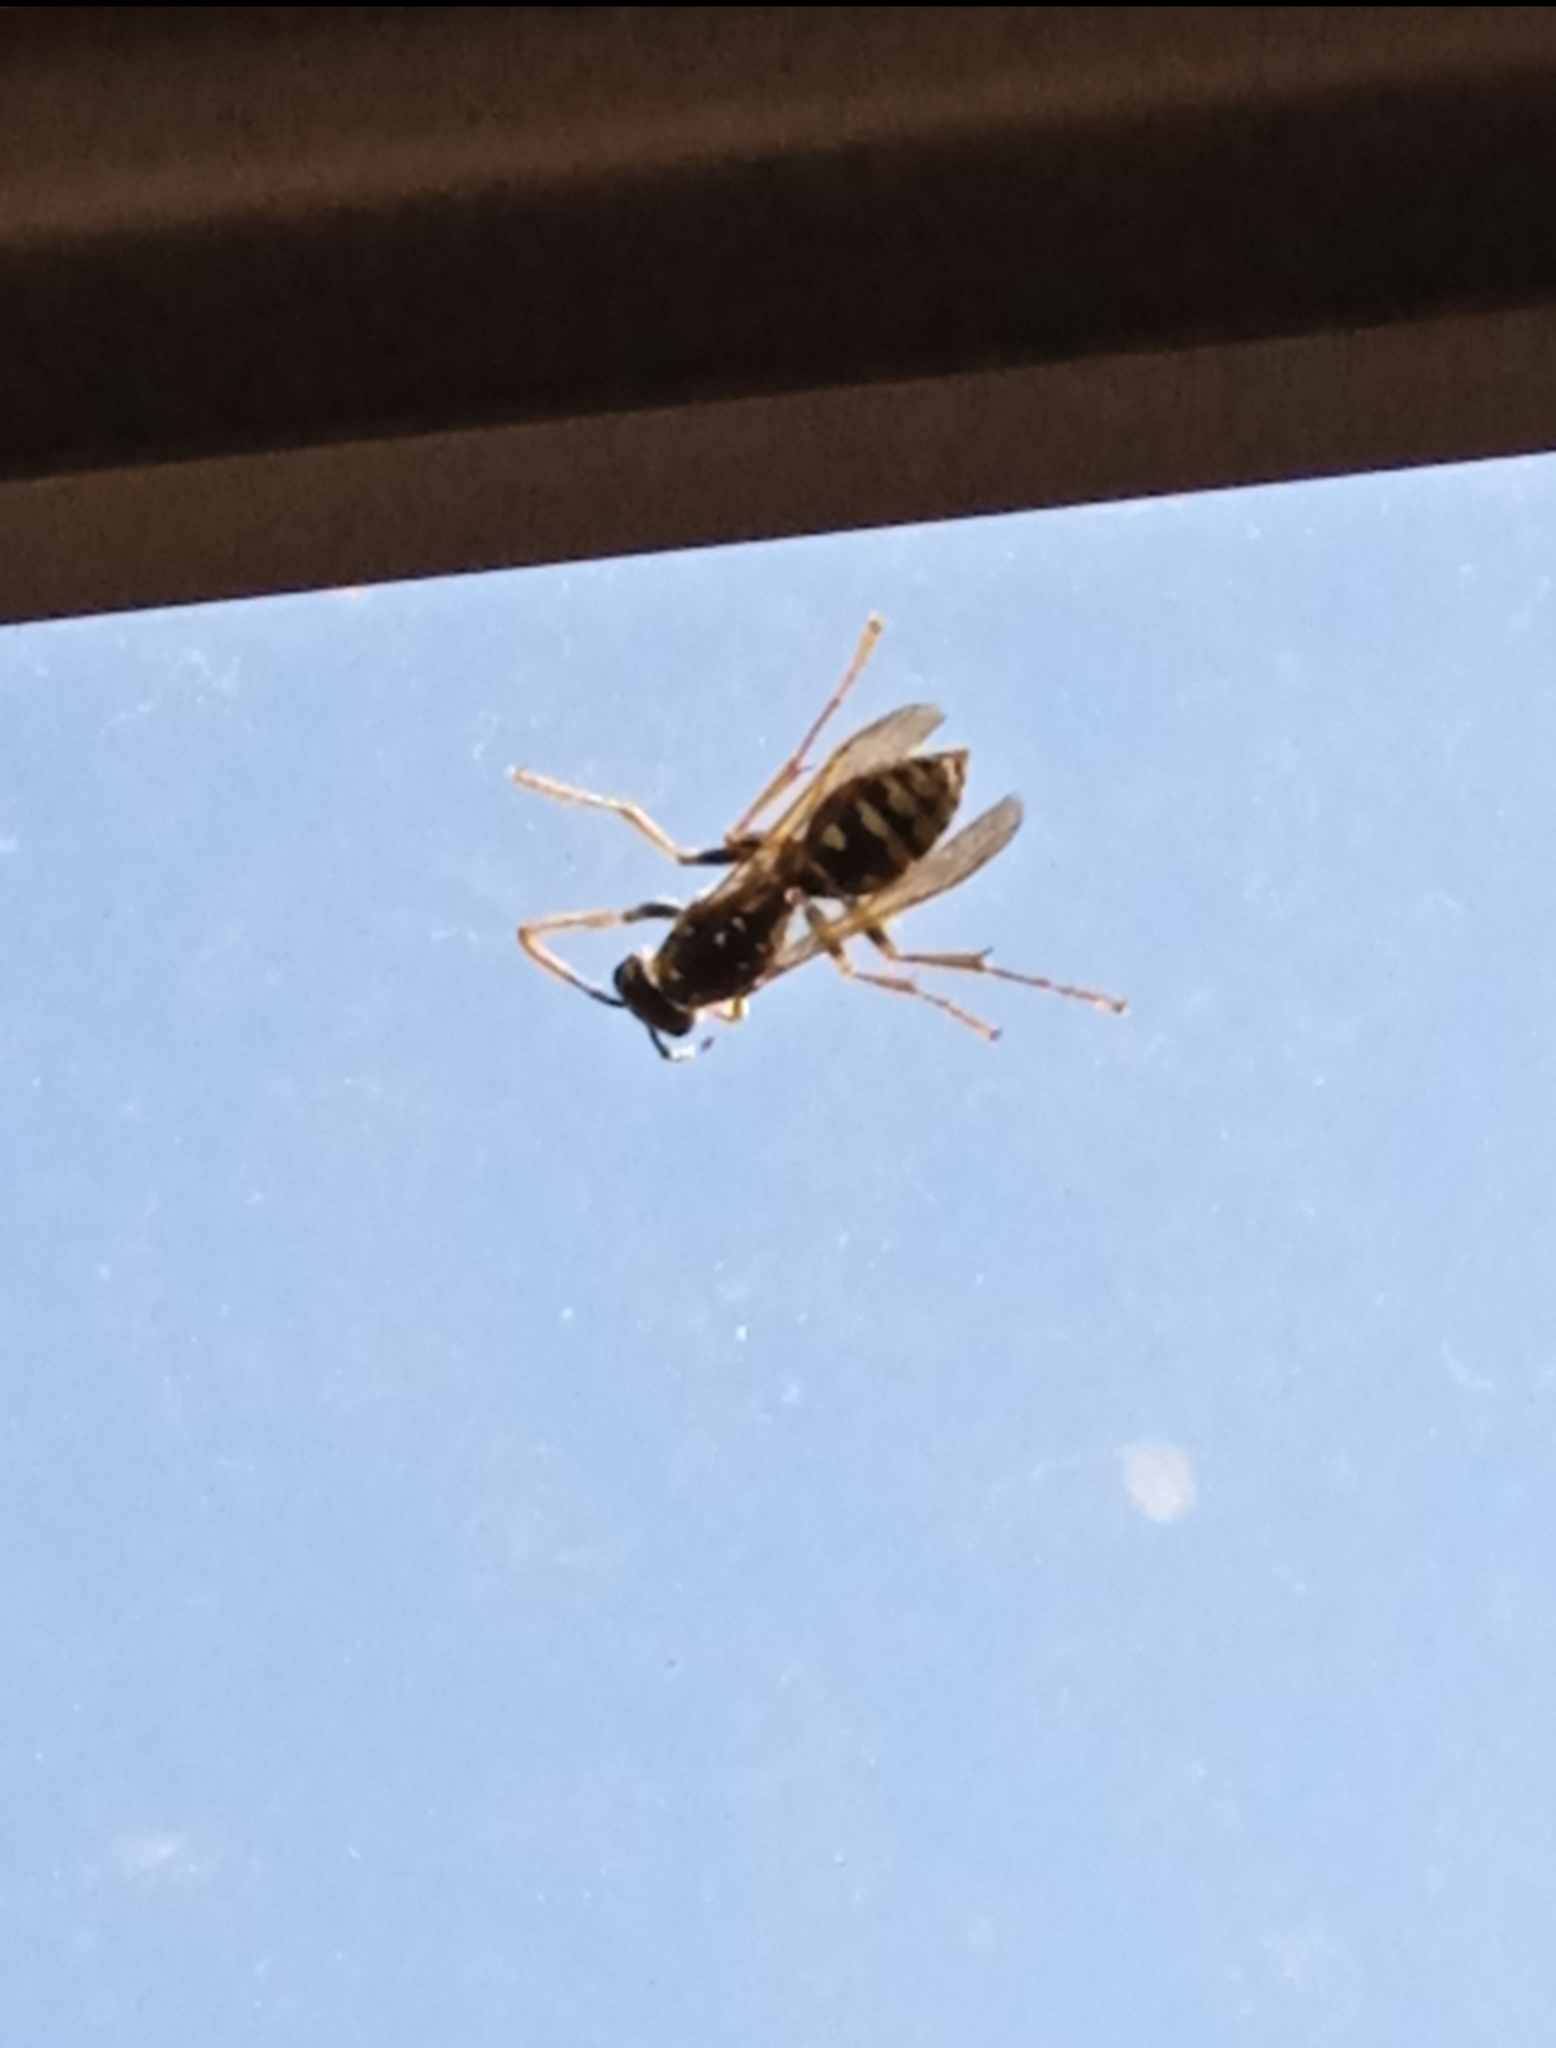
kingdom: Animalia
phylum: Arthropoda
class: Insecta
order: Hymenoptera
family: Eumenidae
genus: Polistes
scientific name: Polistes dominula
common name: Paper wasp
